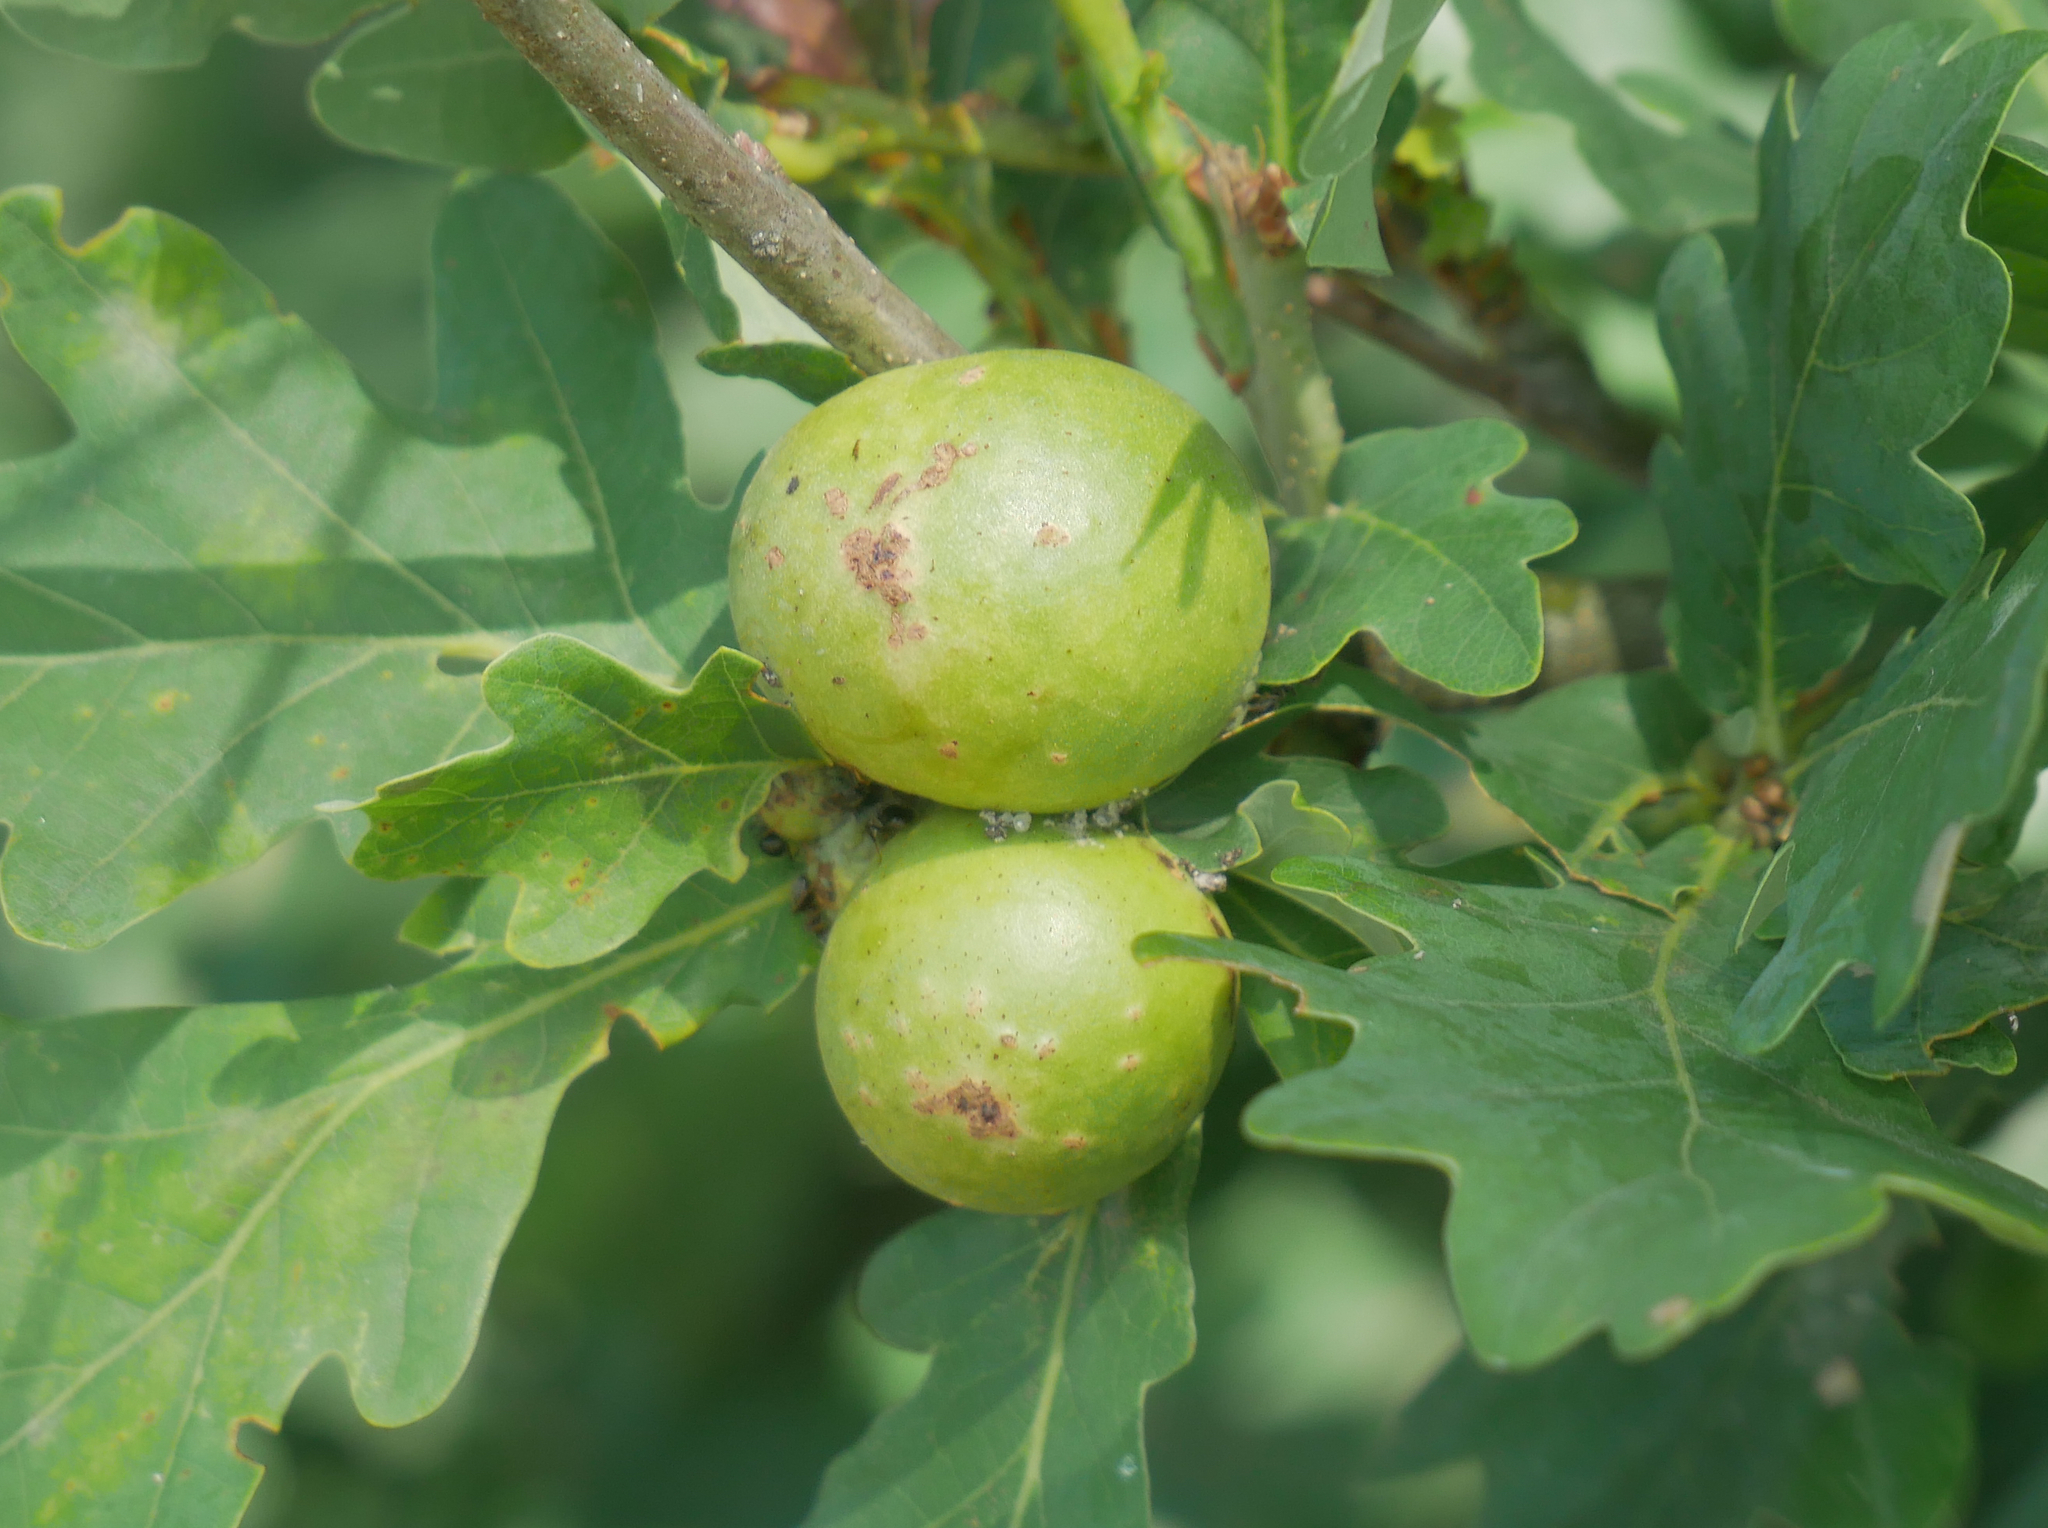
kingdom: Animalia
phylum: Arthropoda
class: Insecta
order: Hymenoptera
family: Cynipidae
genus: Andricus
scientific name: Andricus kollari
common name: Marble gall
